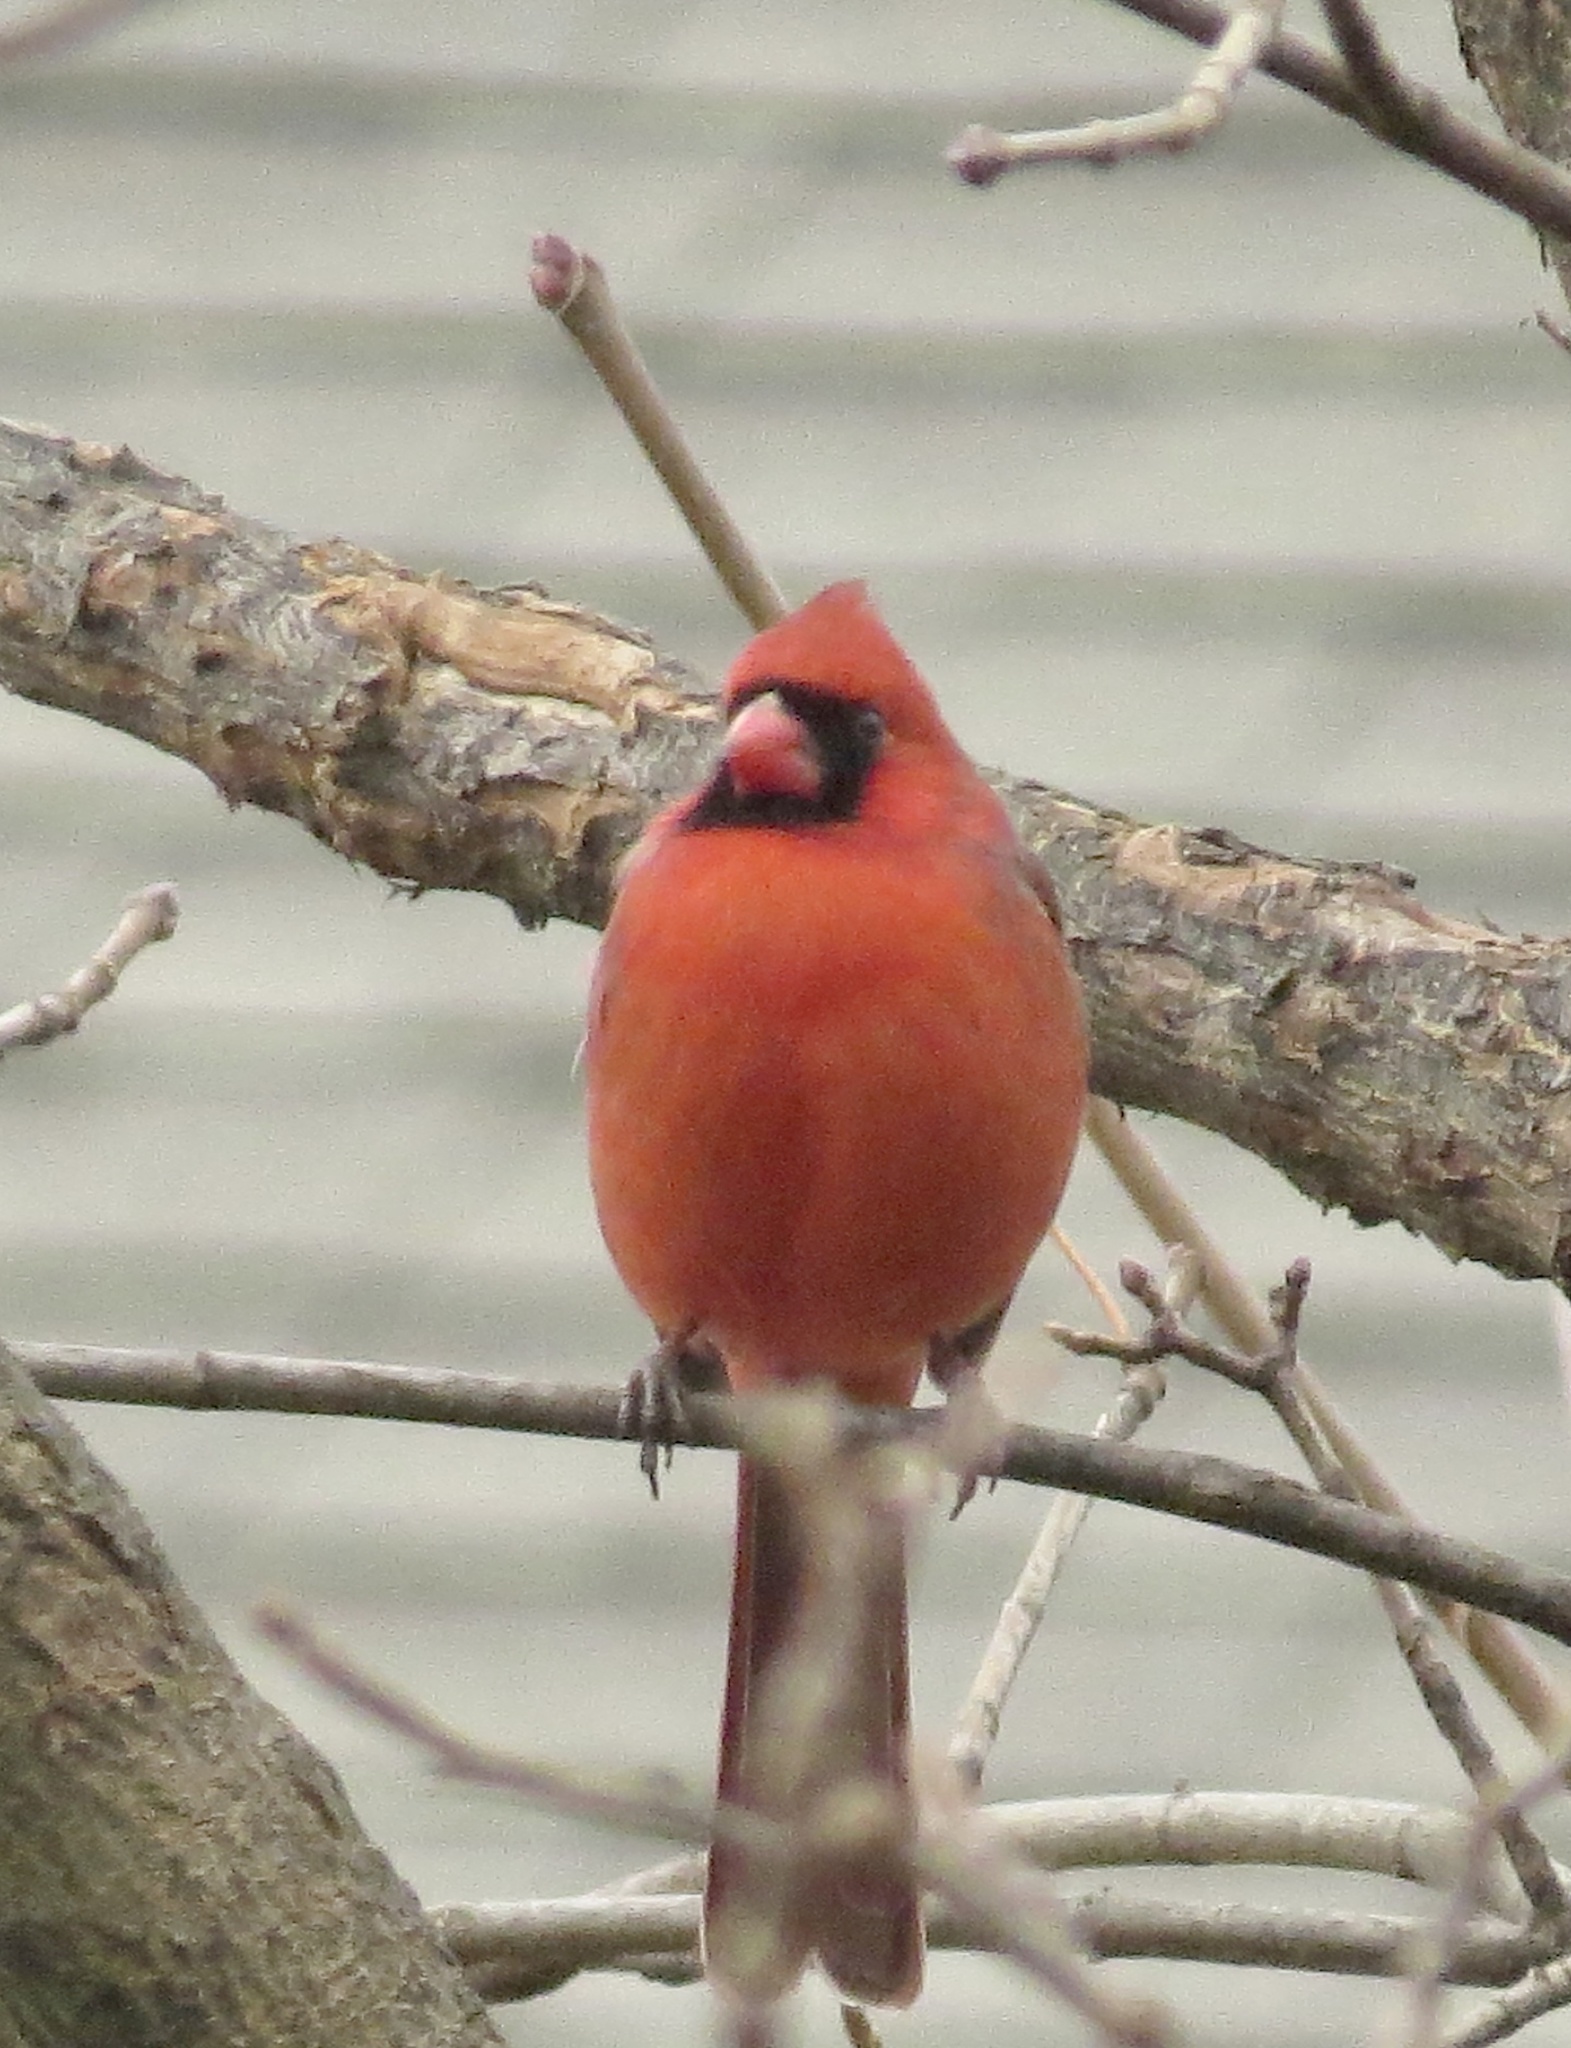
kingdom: Animalia
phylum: Chordata
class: Aves
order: Passeriformes
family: Cardinalidae
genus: Cardinalis
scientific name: Cardinalis cardinalis
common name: Northern cardinal
